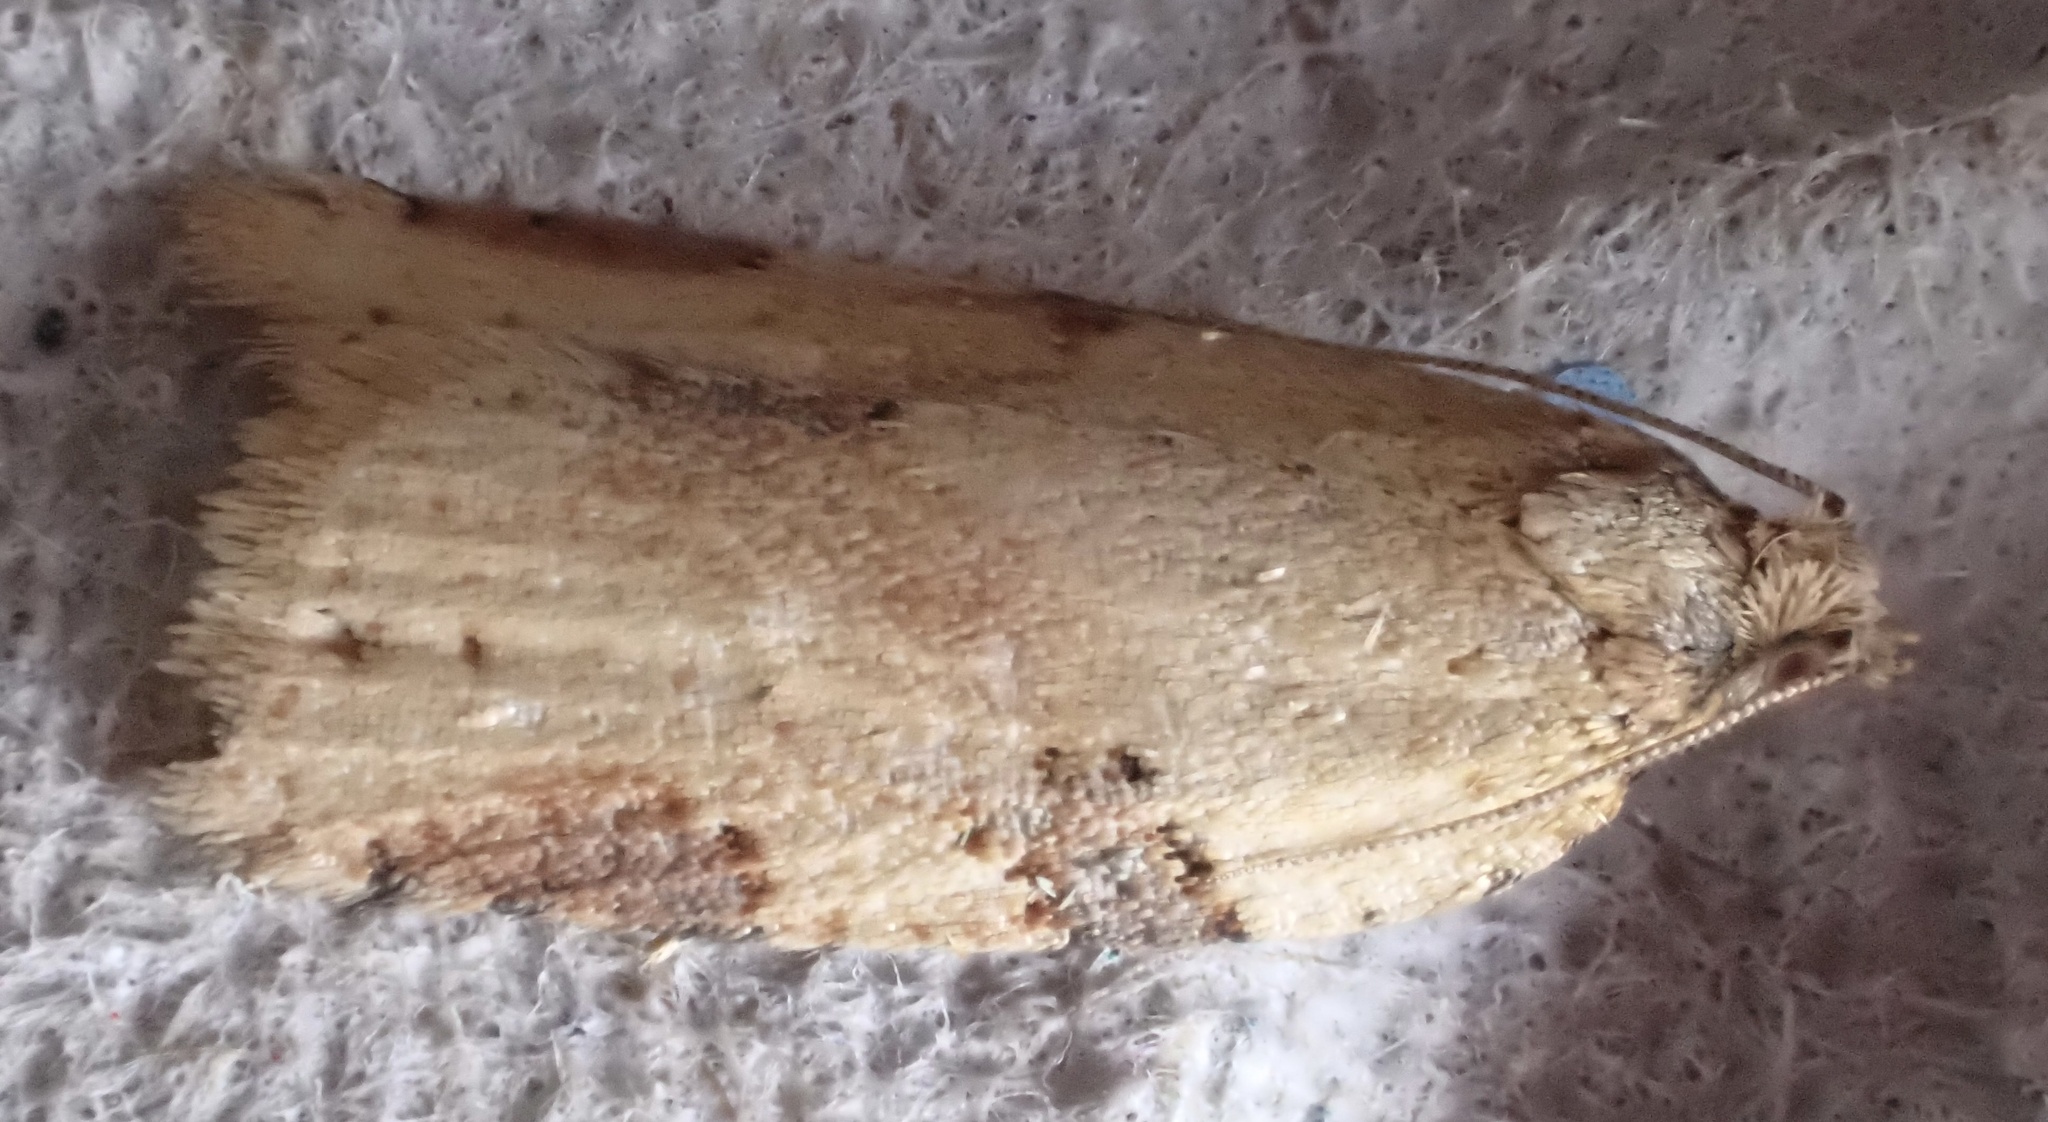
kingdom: Animalia
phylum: Arthropoda
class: Insecta
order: Lepidoptera
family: Tortricidae
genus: Clepsis
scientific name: Clepsis spectrana
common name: Cyclamen tortrix
